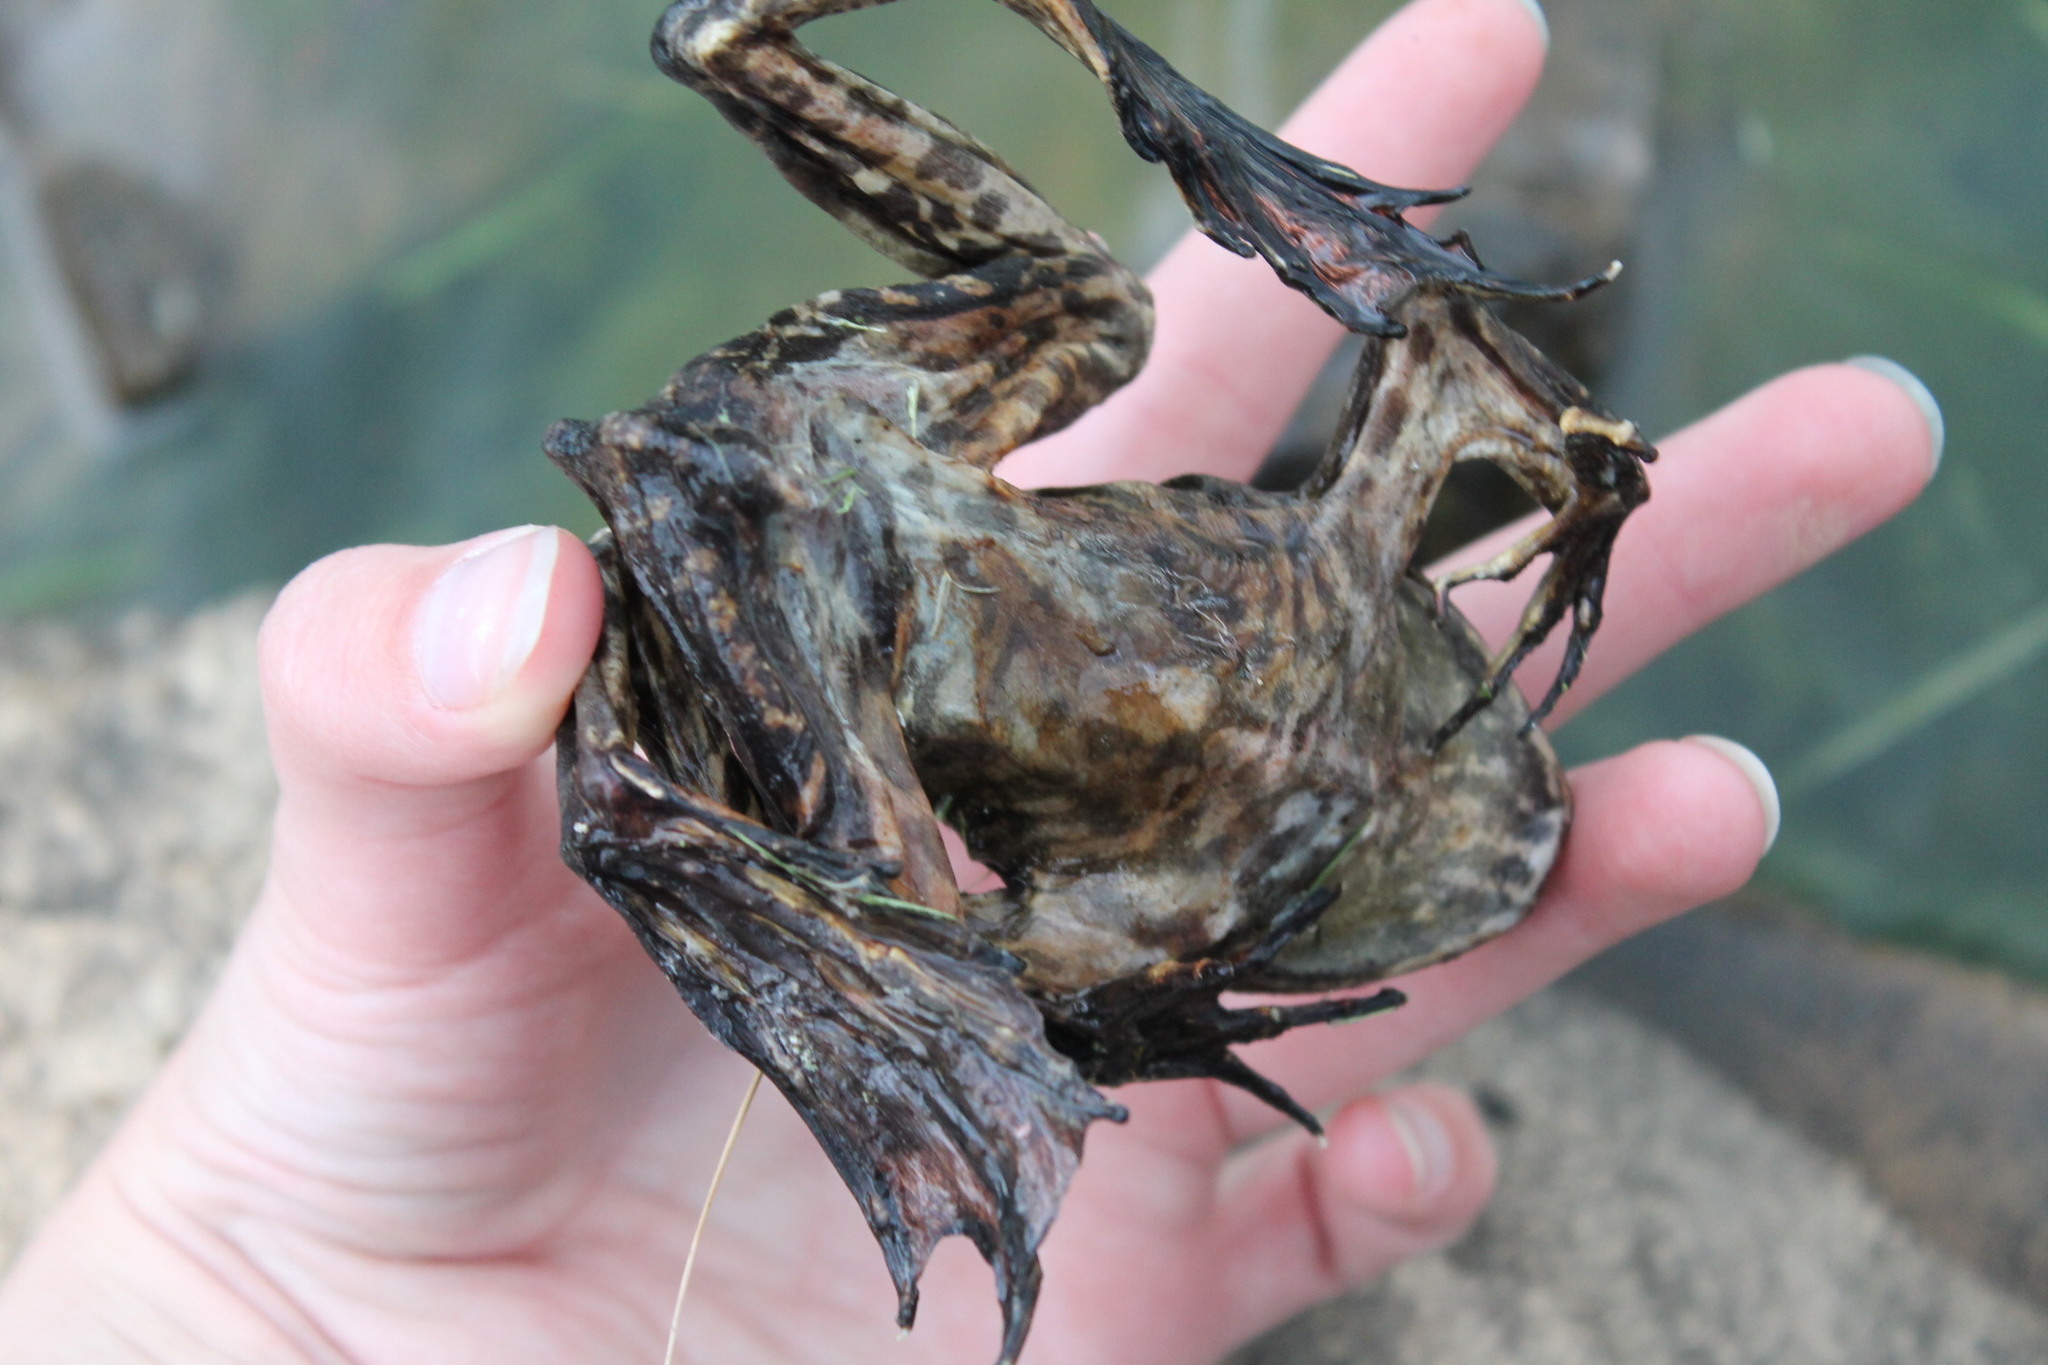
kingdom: Animalia
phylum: Chordata
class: Amphibia
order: Anura
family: Ranidae
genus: Lithobates
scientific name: Lithobates catesbeianus
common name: American bullfrog
